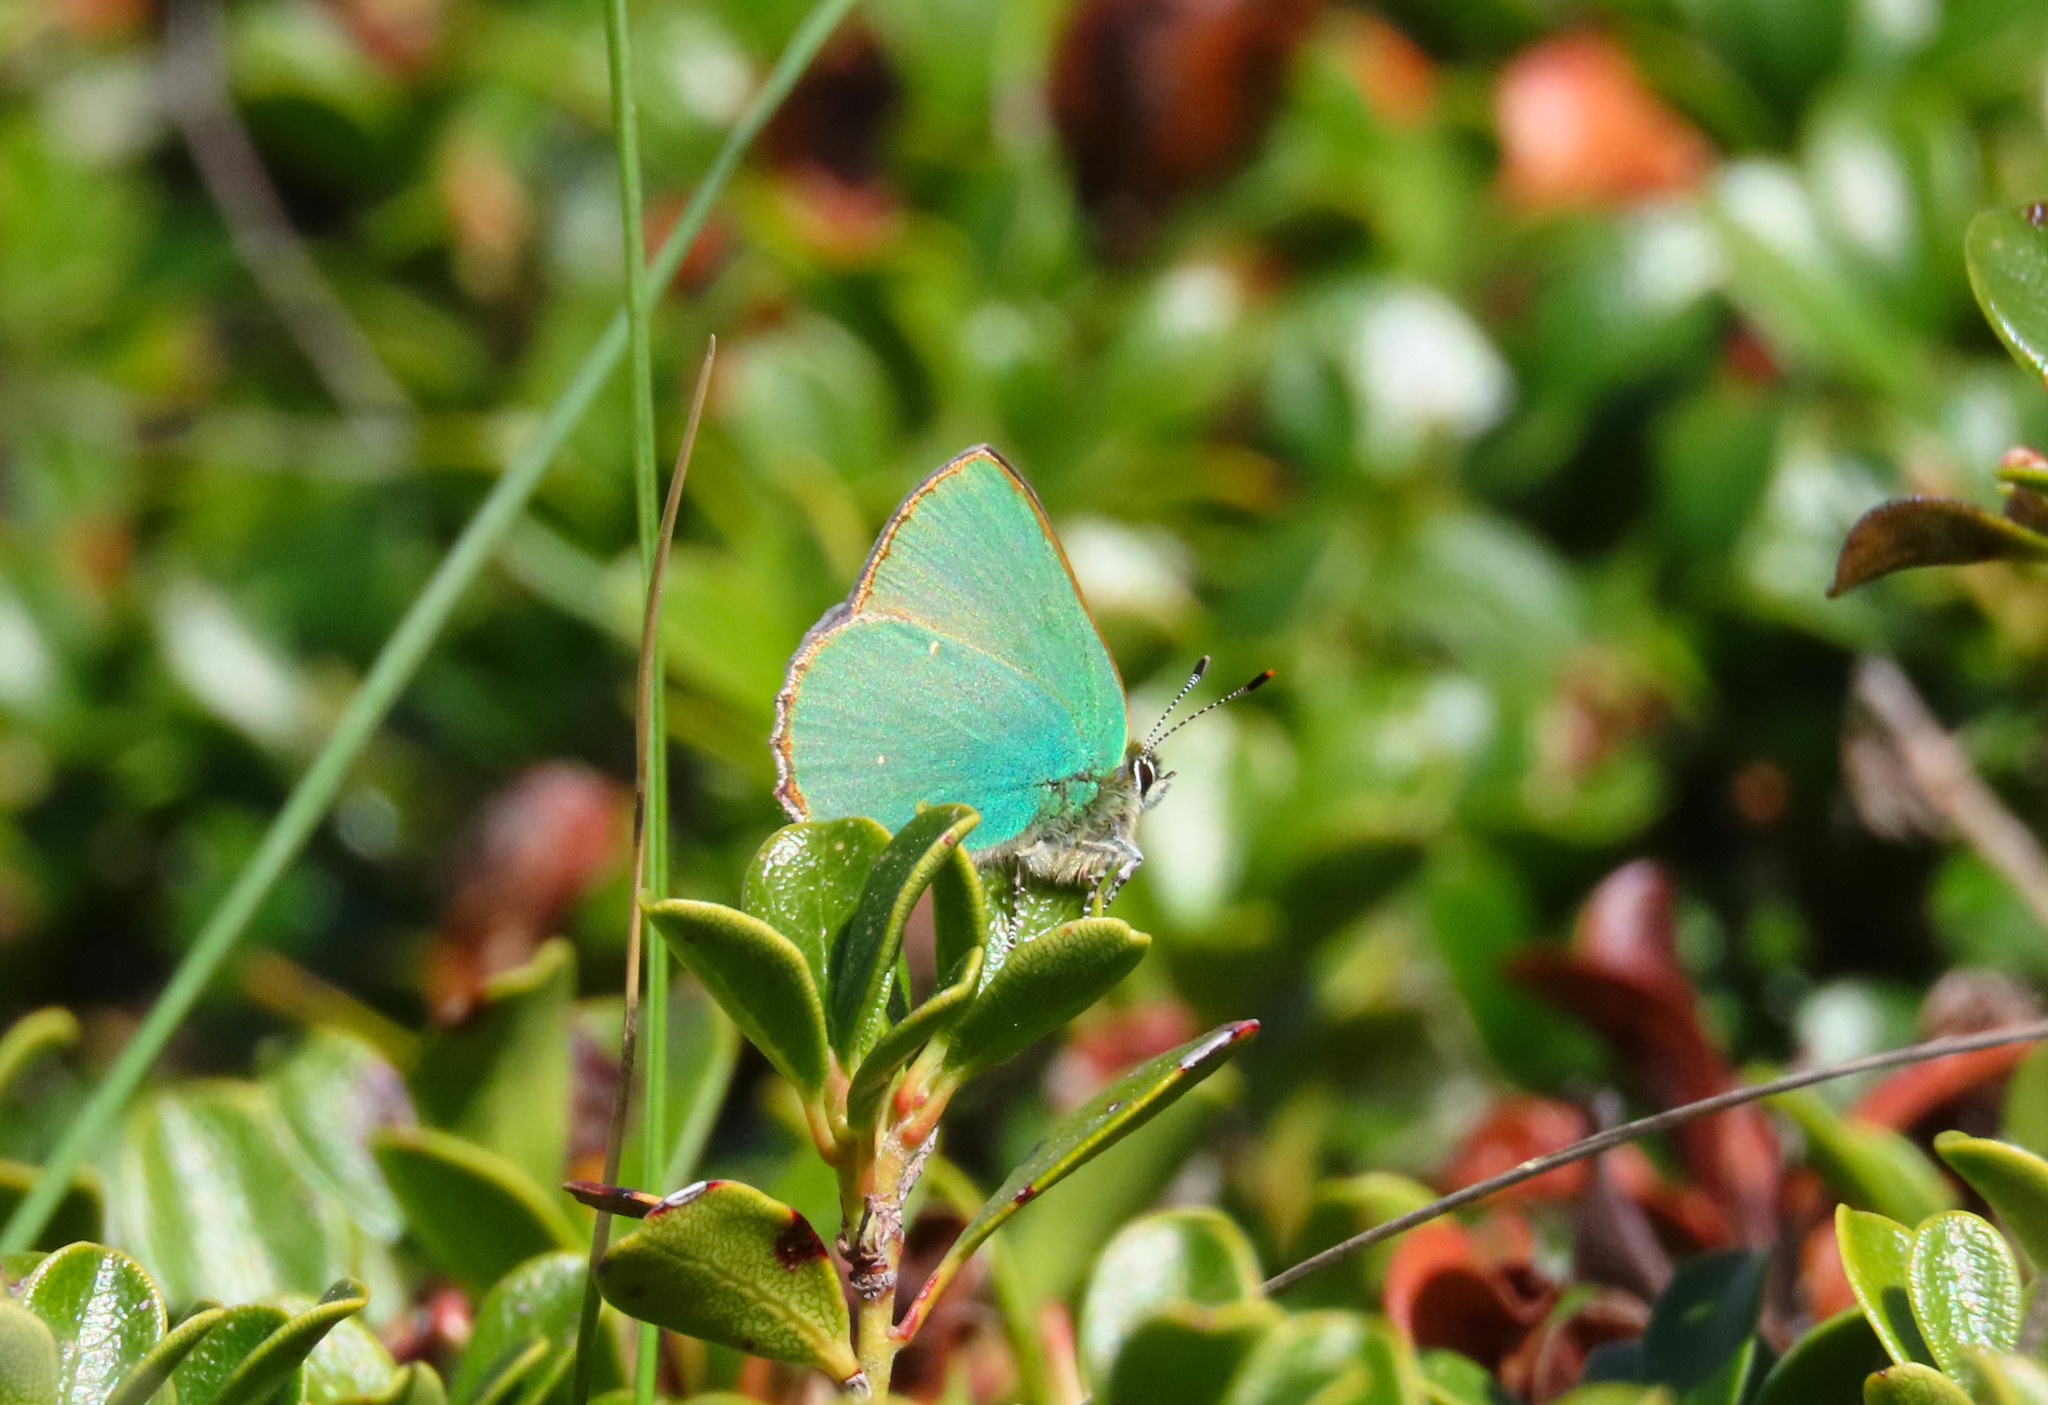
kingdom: Animalia
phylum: Arthropoda
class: Insecta
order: Lepidoptera
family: Lycaenidae
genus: Callophrys
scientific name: Callophrys rubi
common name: Green hairstreak
